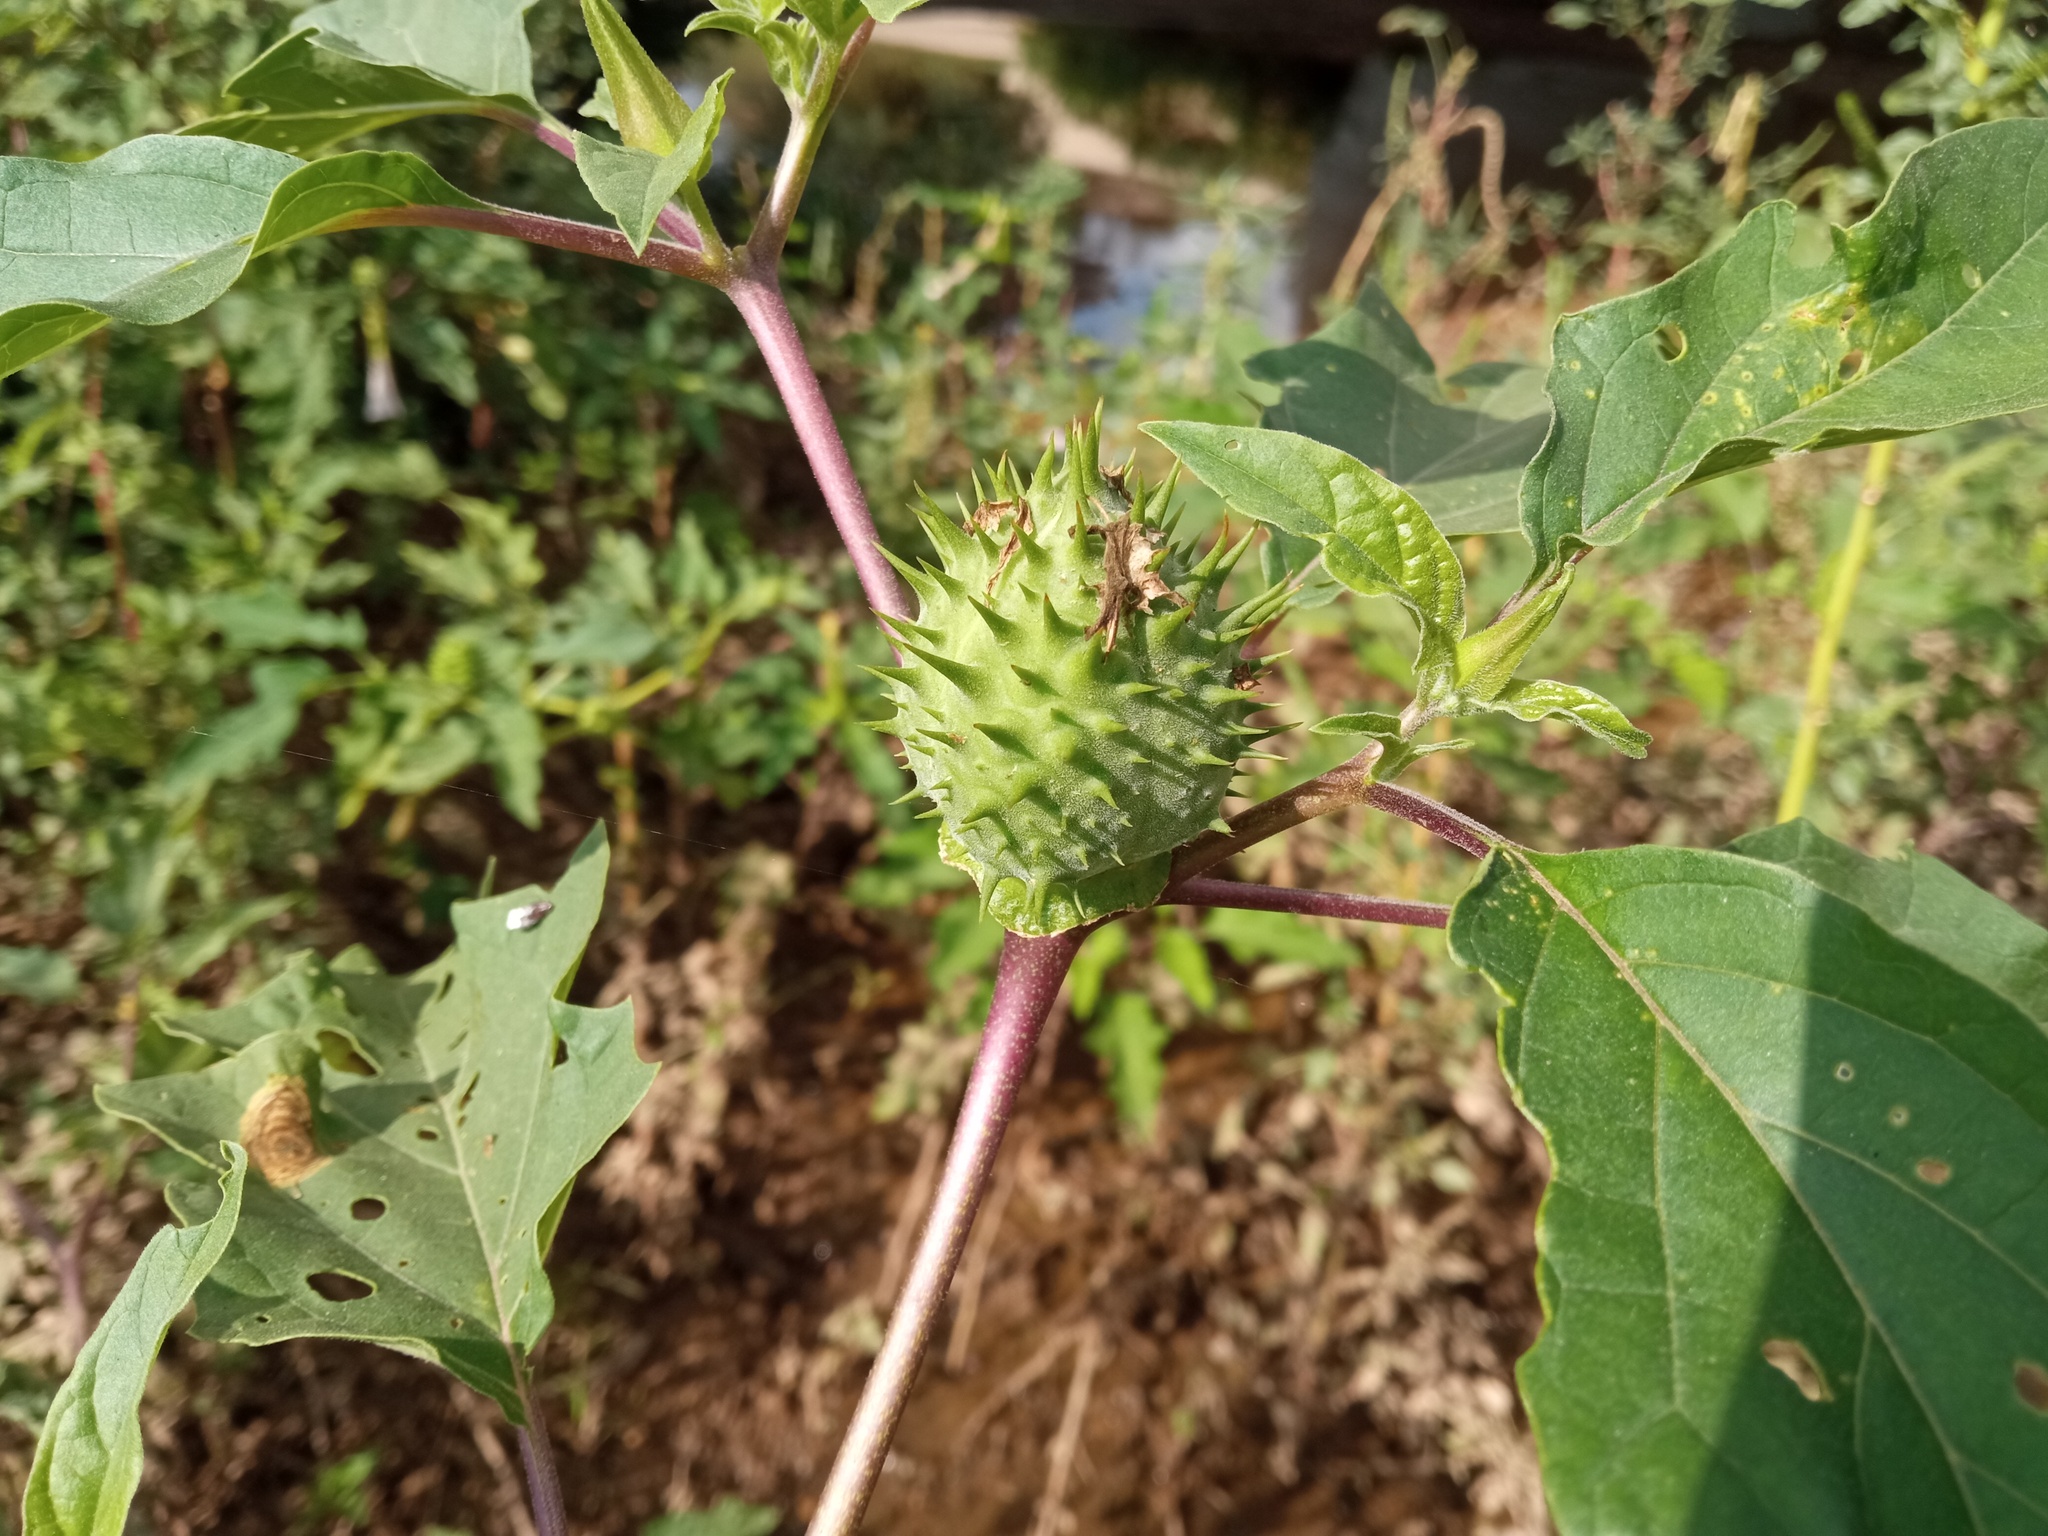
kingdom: Plantae
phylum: Tracheophyta
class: Magnoliopsida
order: Solanales
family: Solanaceae
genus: Datura
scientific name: Datura stramonium
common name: Thorn-apple
